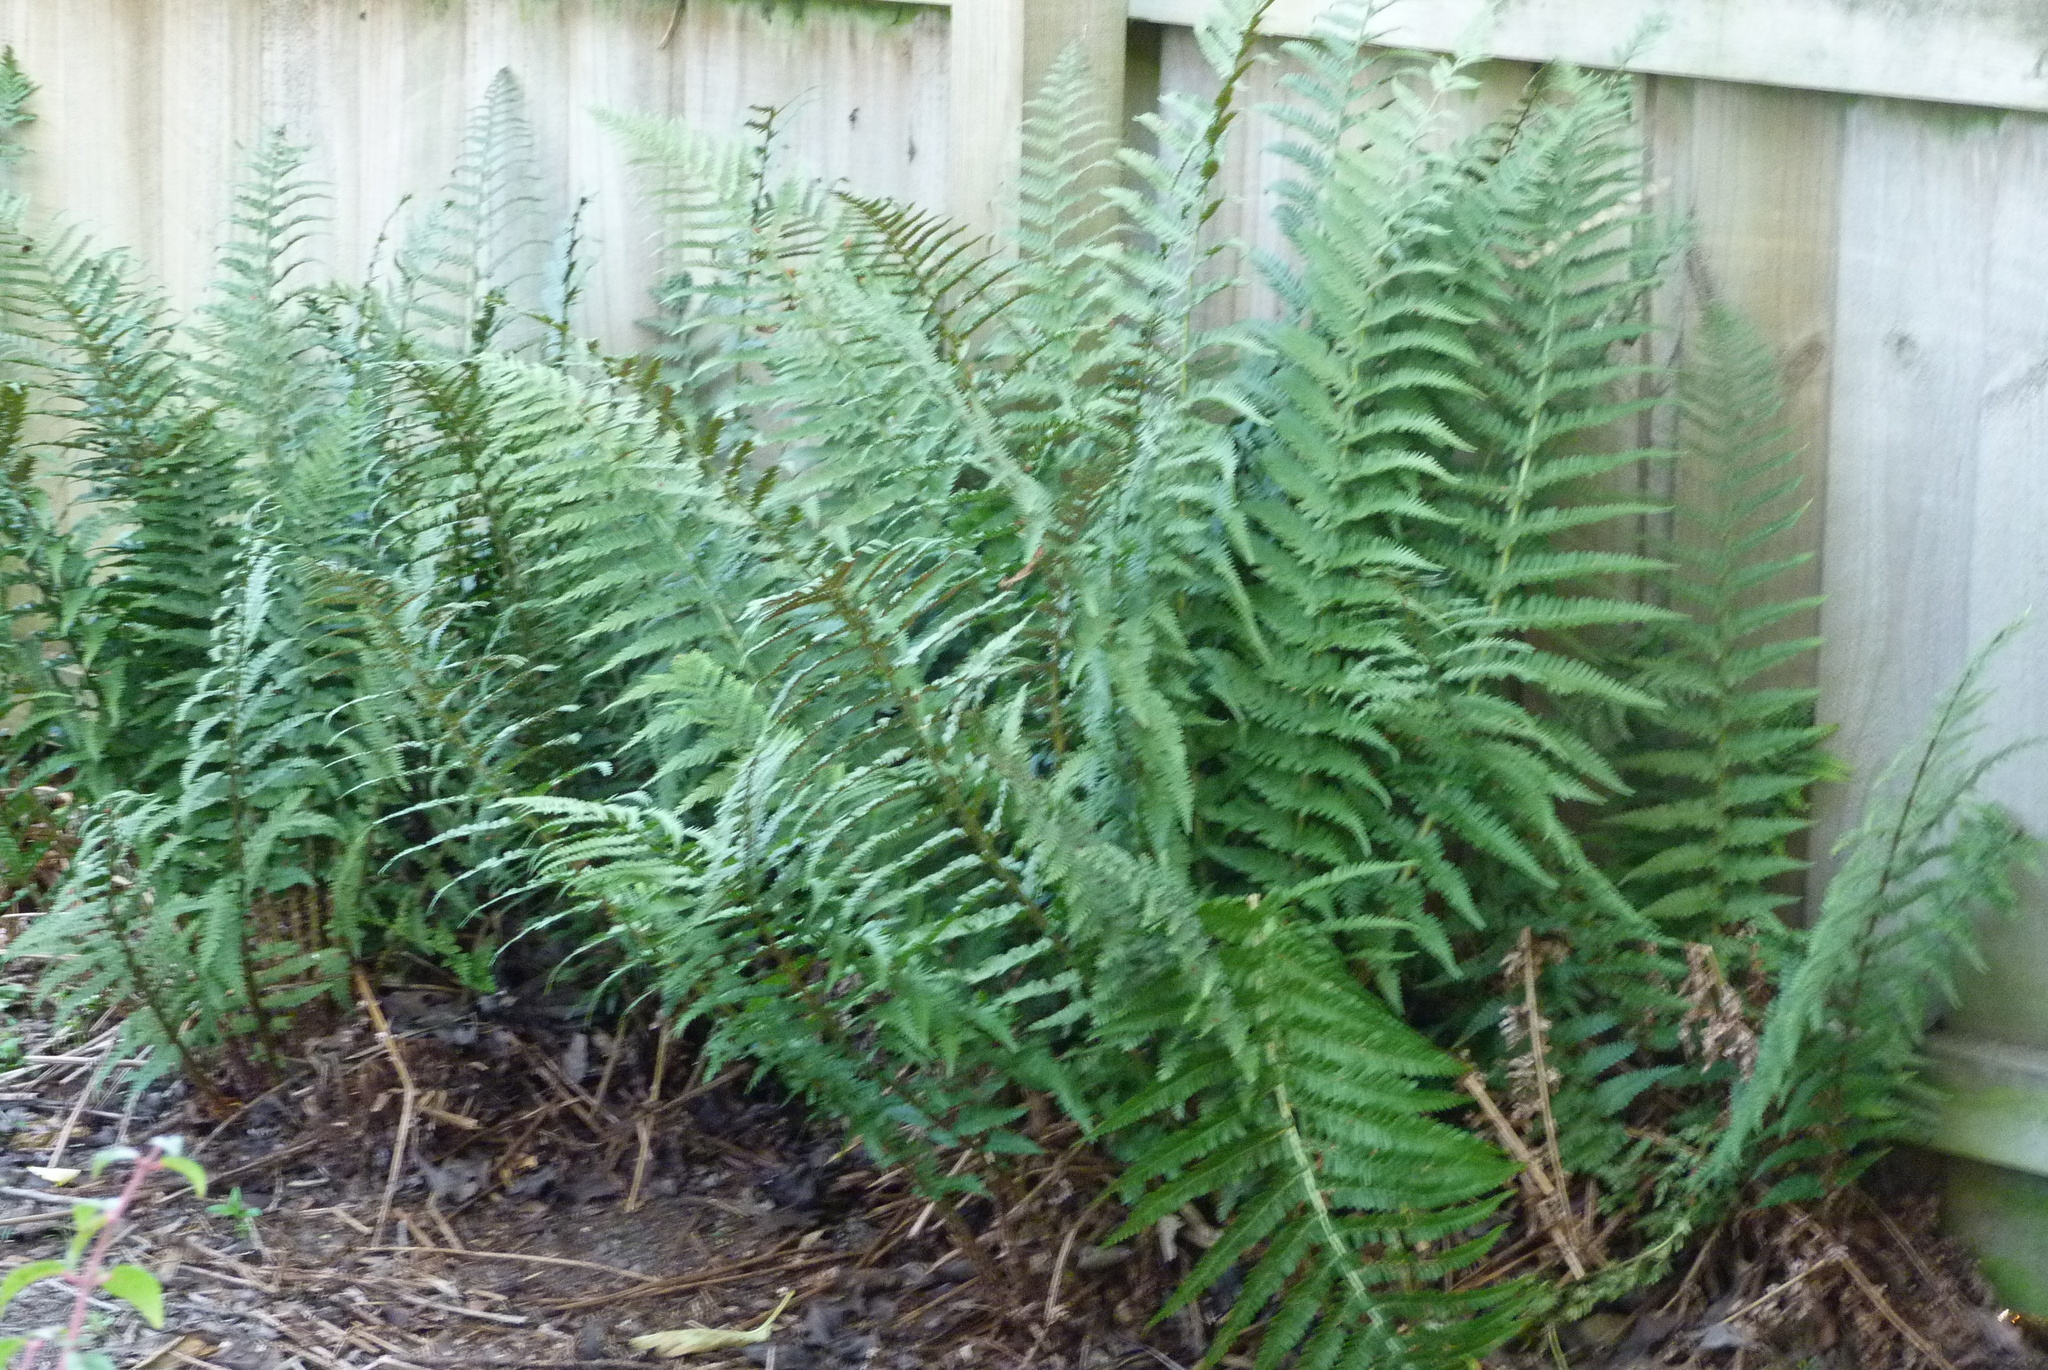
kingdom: Plantae
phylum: Tracheophyta
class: Polypodiopsida
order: Polypodiales
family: Dryopteridaceae
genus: Dryopteris
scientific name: Dryopteris filix-mas
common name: Male fern
